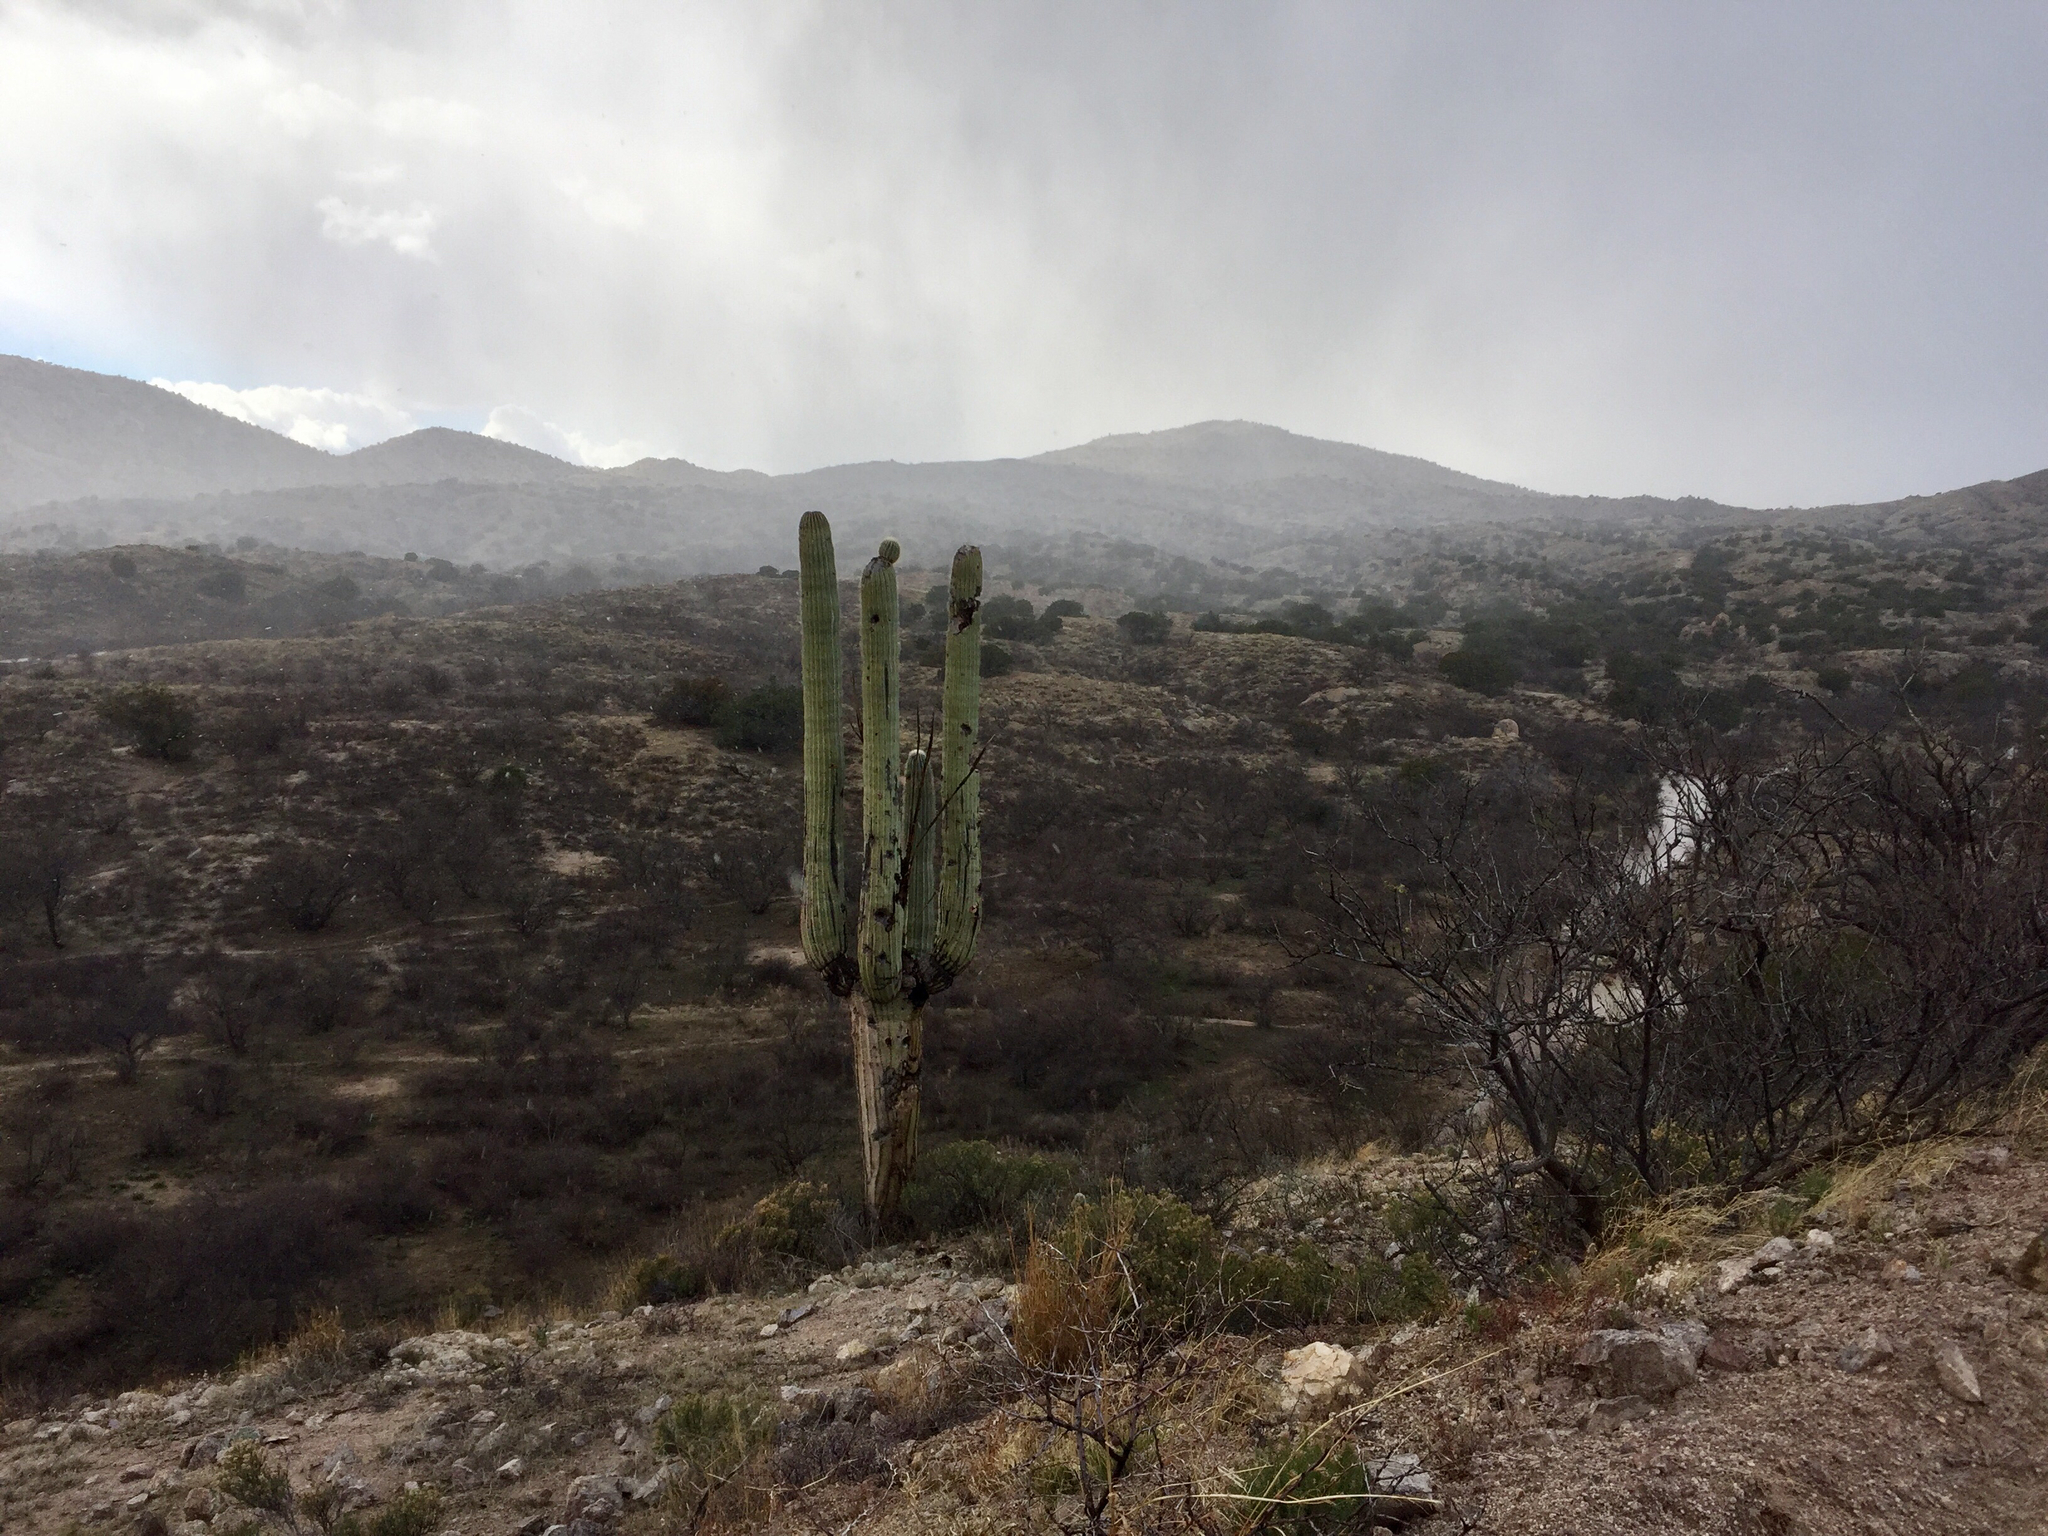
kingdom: Plantae
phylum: Tracheophyta
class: Magnoliopsida
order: Caryophyllales
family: Cactaceae
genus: Carnegiea
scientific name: Carnegiea gigantea
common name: Saguaro
